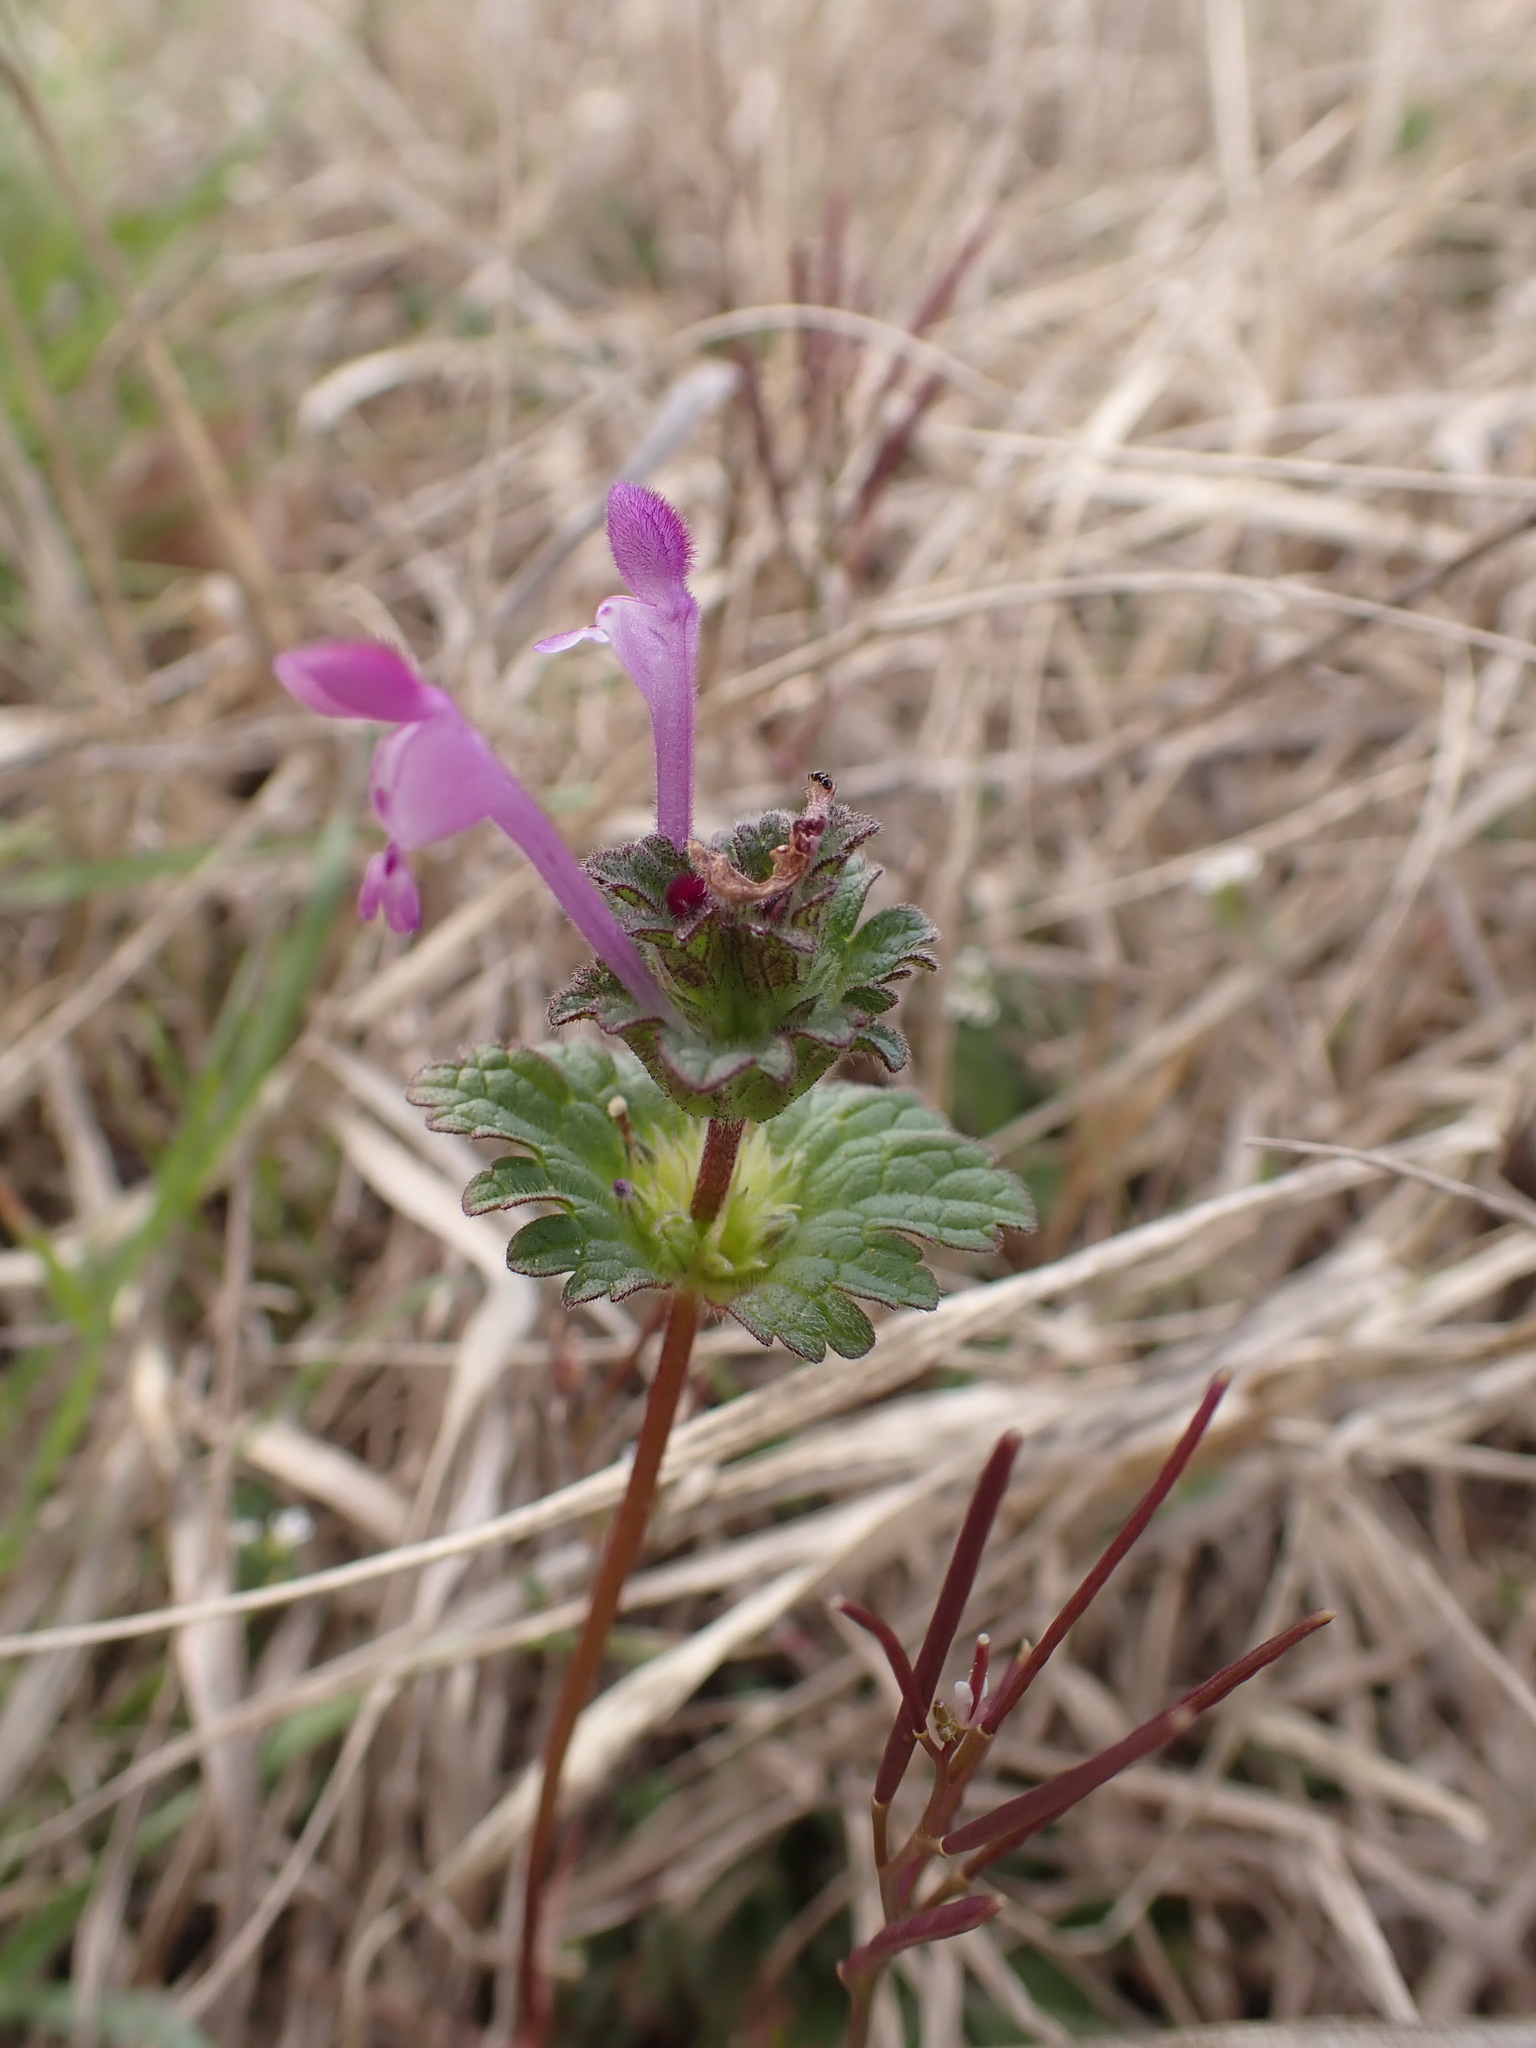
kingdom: Plantae
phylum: Tracheophyta
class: Magnoliopsida
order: Lamiales
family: Lamiaceae
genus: Lamium
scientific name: Lamium amplexicaule
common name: Henbit dead-nettle
